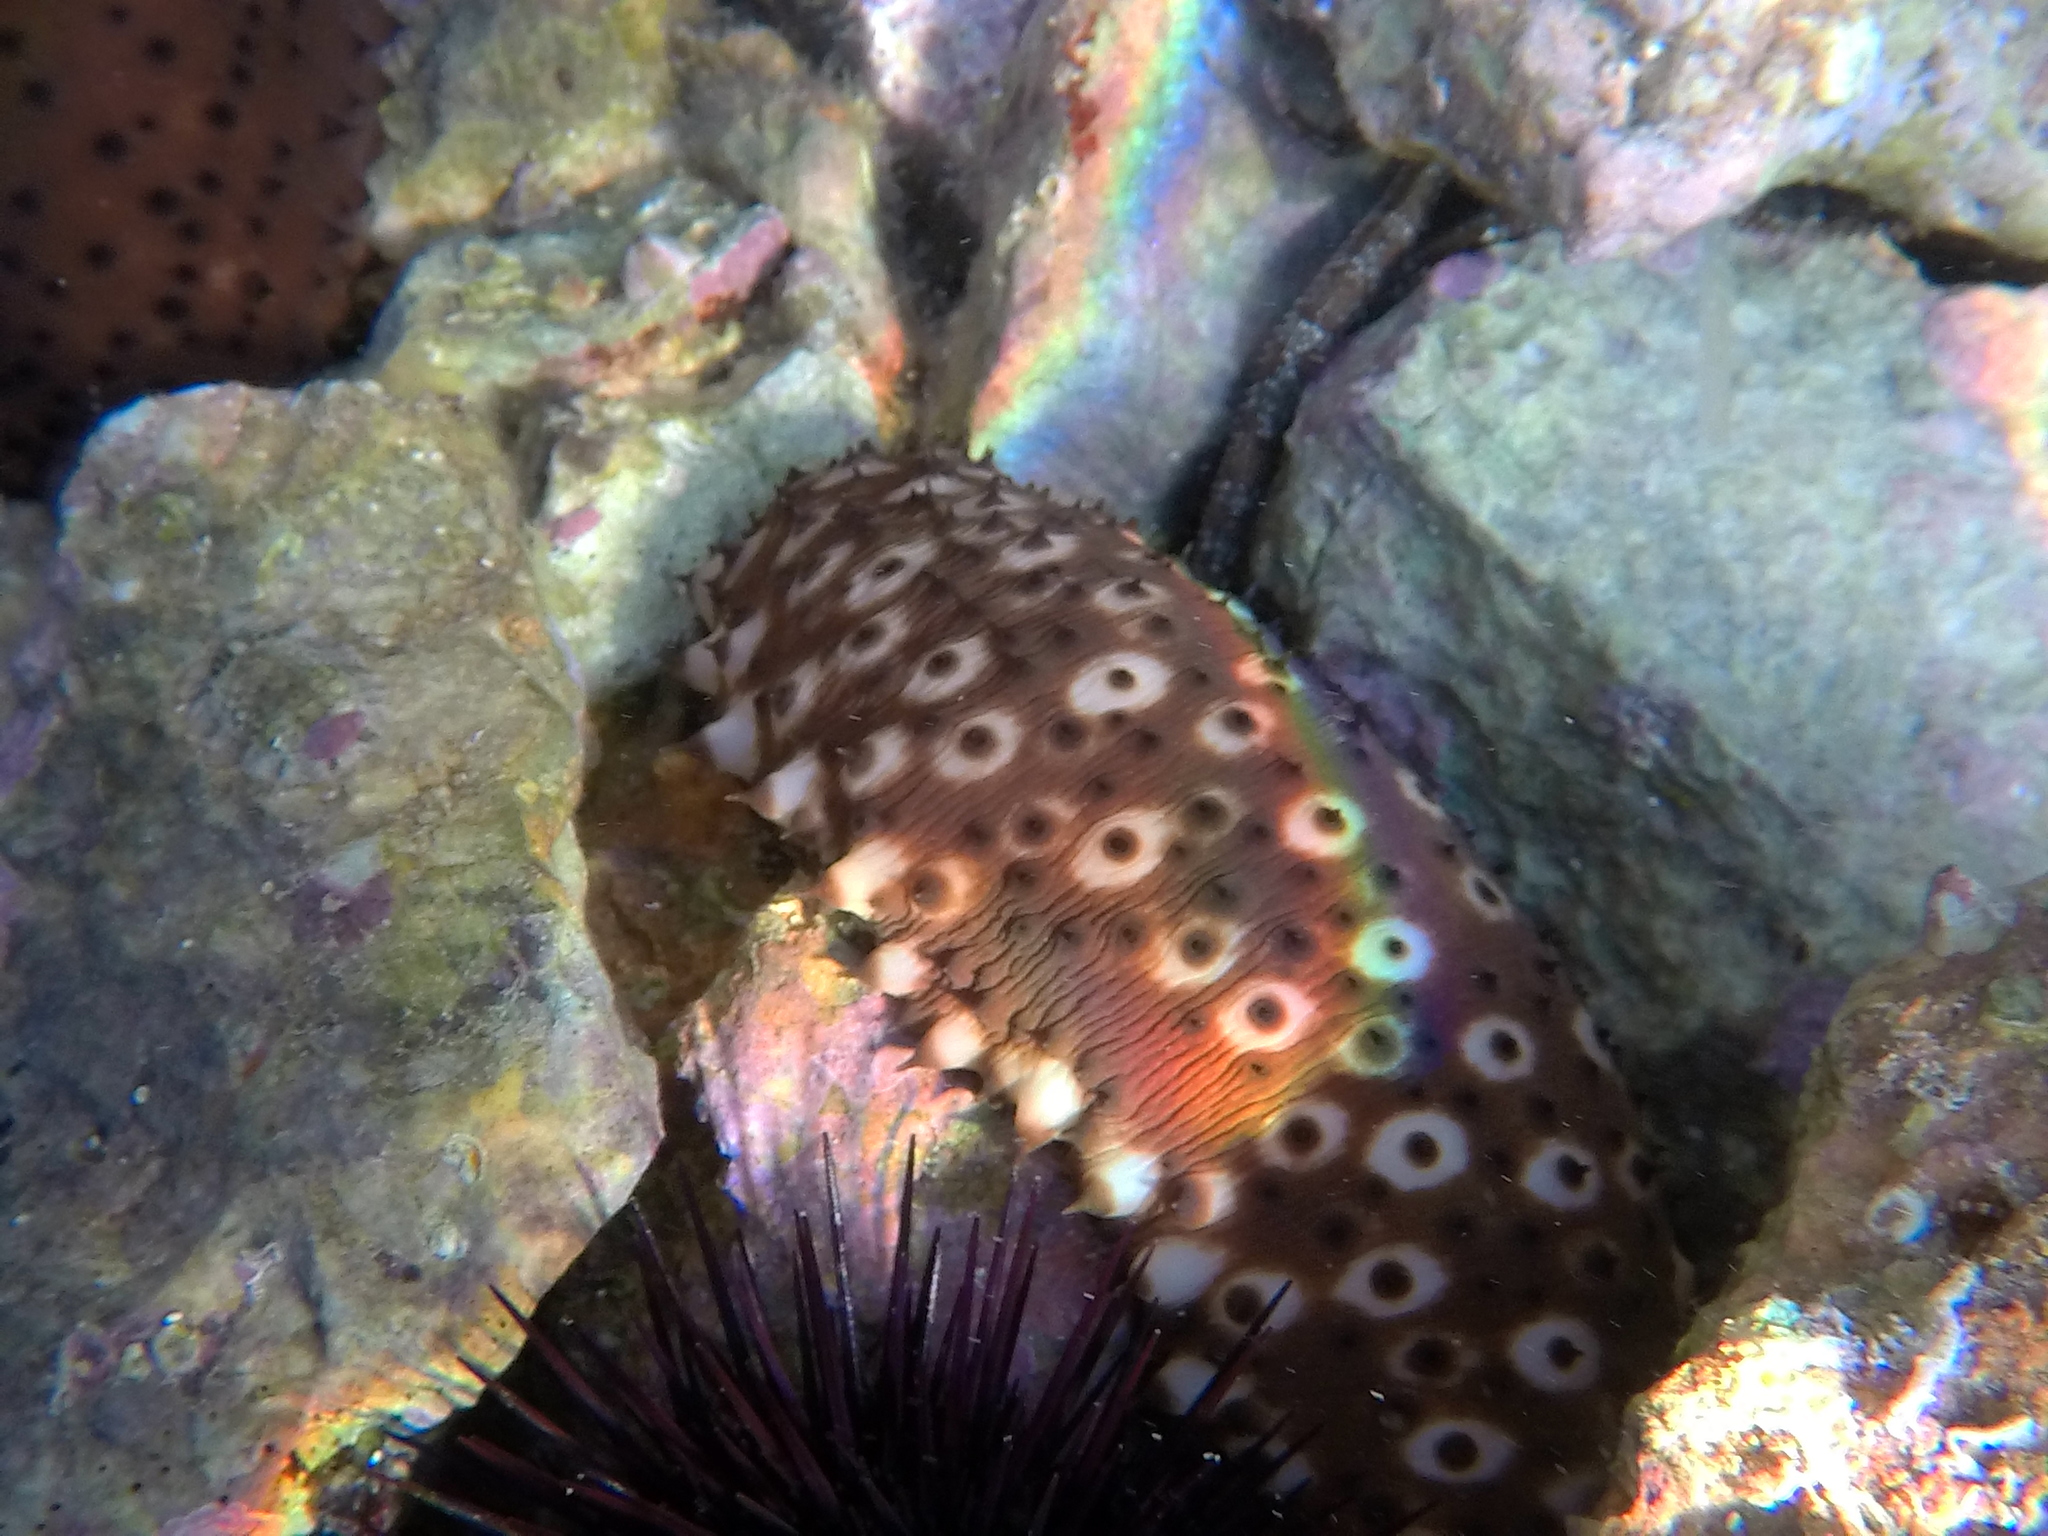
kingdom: Animalia
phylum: Echinodermata
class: Holothuroidea
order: Holothuriida
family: Holothuriidae
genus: Holothuria
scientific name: Holothuria sanctori
